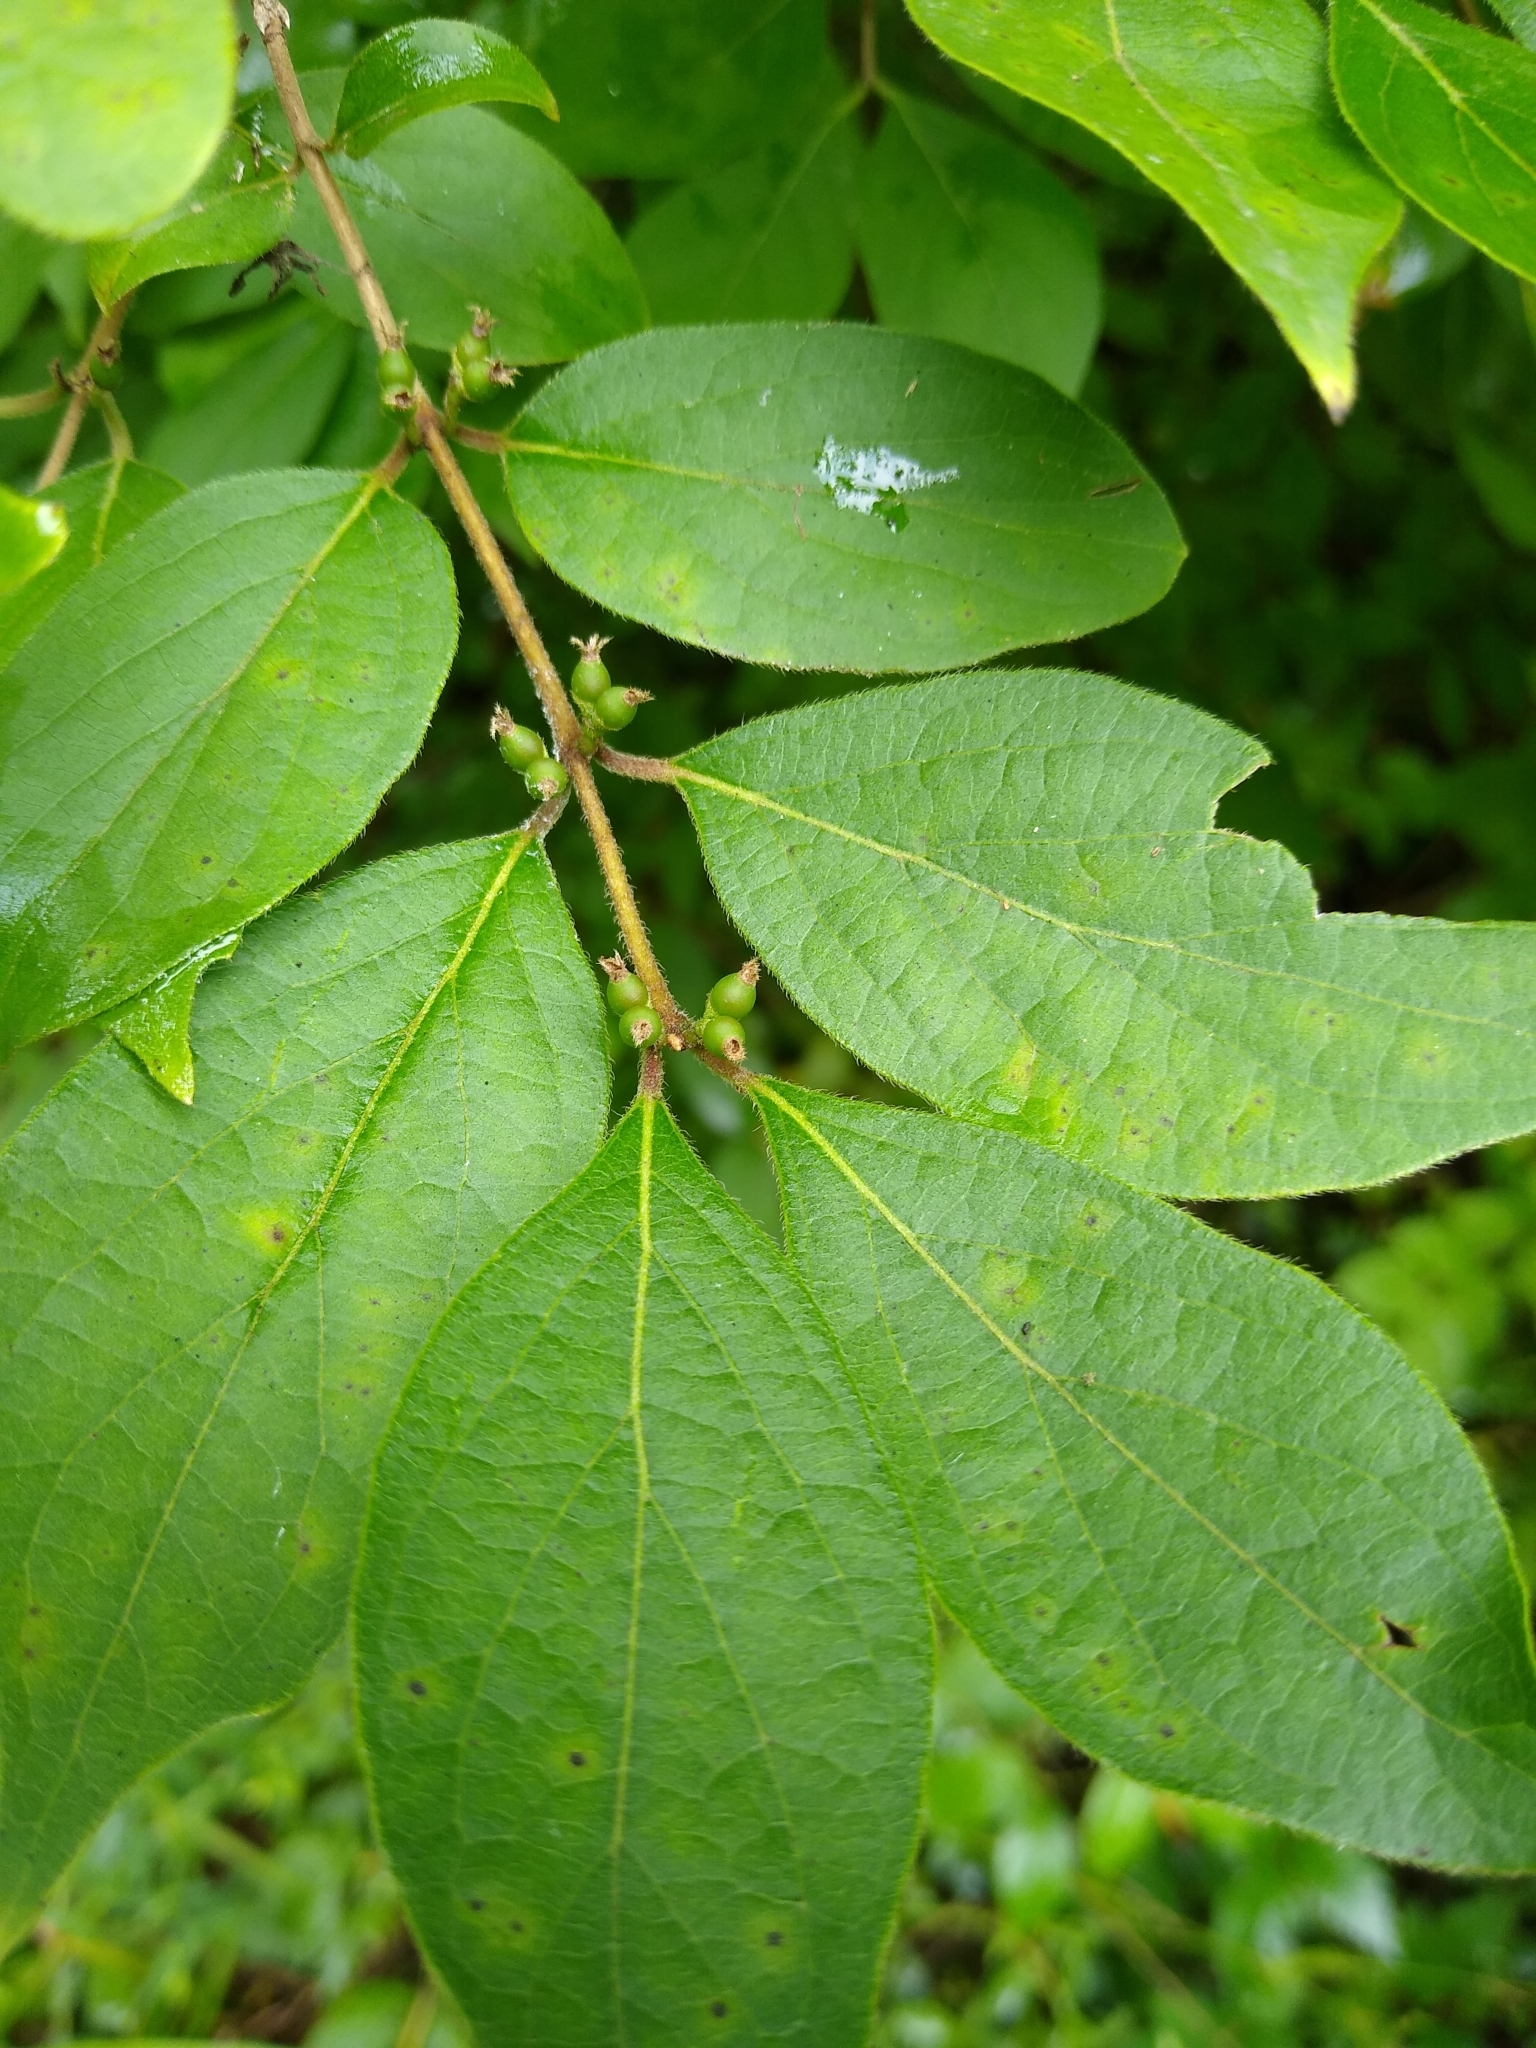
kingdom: Plantae
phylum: Tracheophyta
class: Magnoliopsida
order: Dipsacales
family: Caprifoliaceae
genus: Lonicera
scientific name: Lonicera maackii
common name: Amur honeysuckle
